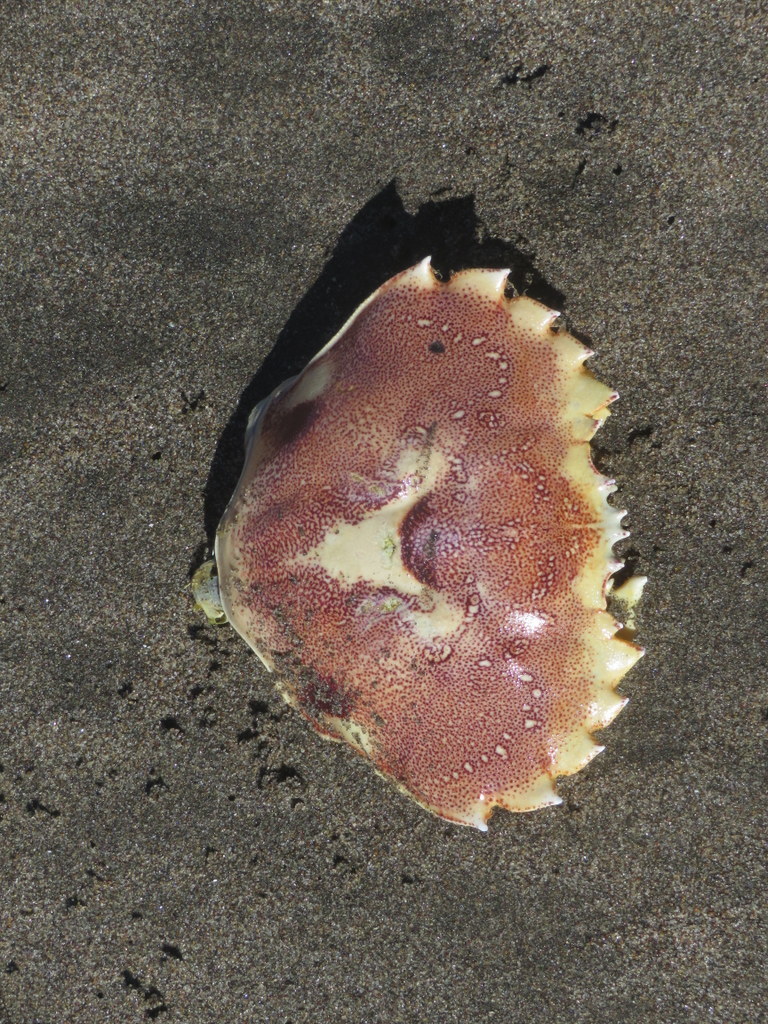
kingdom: Animalia
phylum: Arthropoda
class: Malacostraca
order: Decapoda
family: Ovalipidae
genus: Ovalipes
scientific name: Ovalipes trimaculatus
